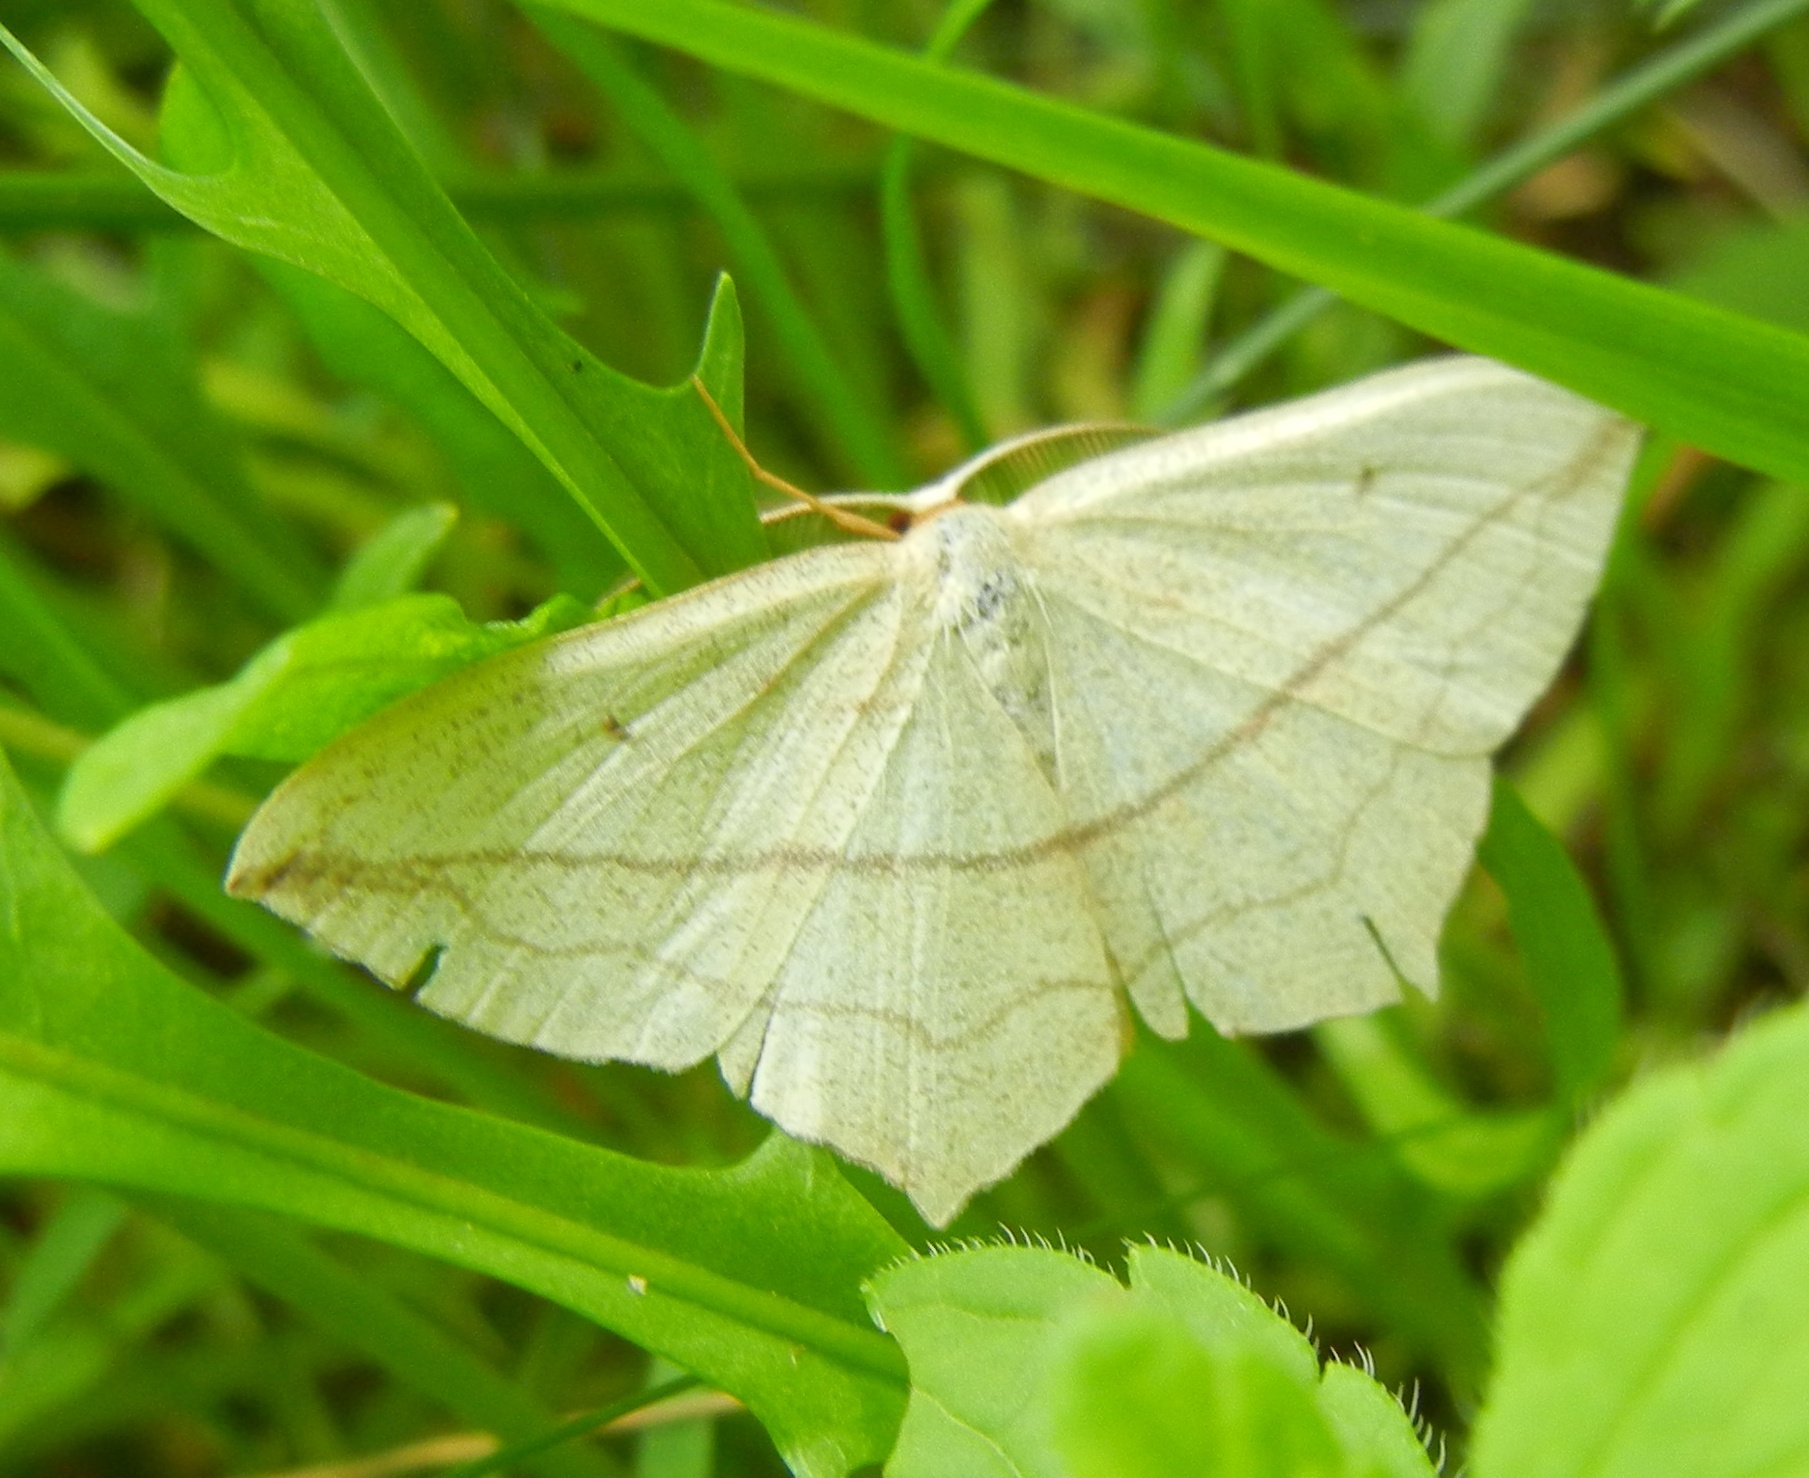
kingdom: Animalia
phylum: Arthropoda
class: Insecta
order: Lepidoptera
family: Geometridae
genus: Timandra
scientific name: Timandra comae
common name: Blood-vein
